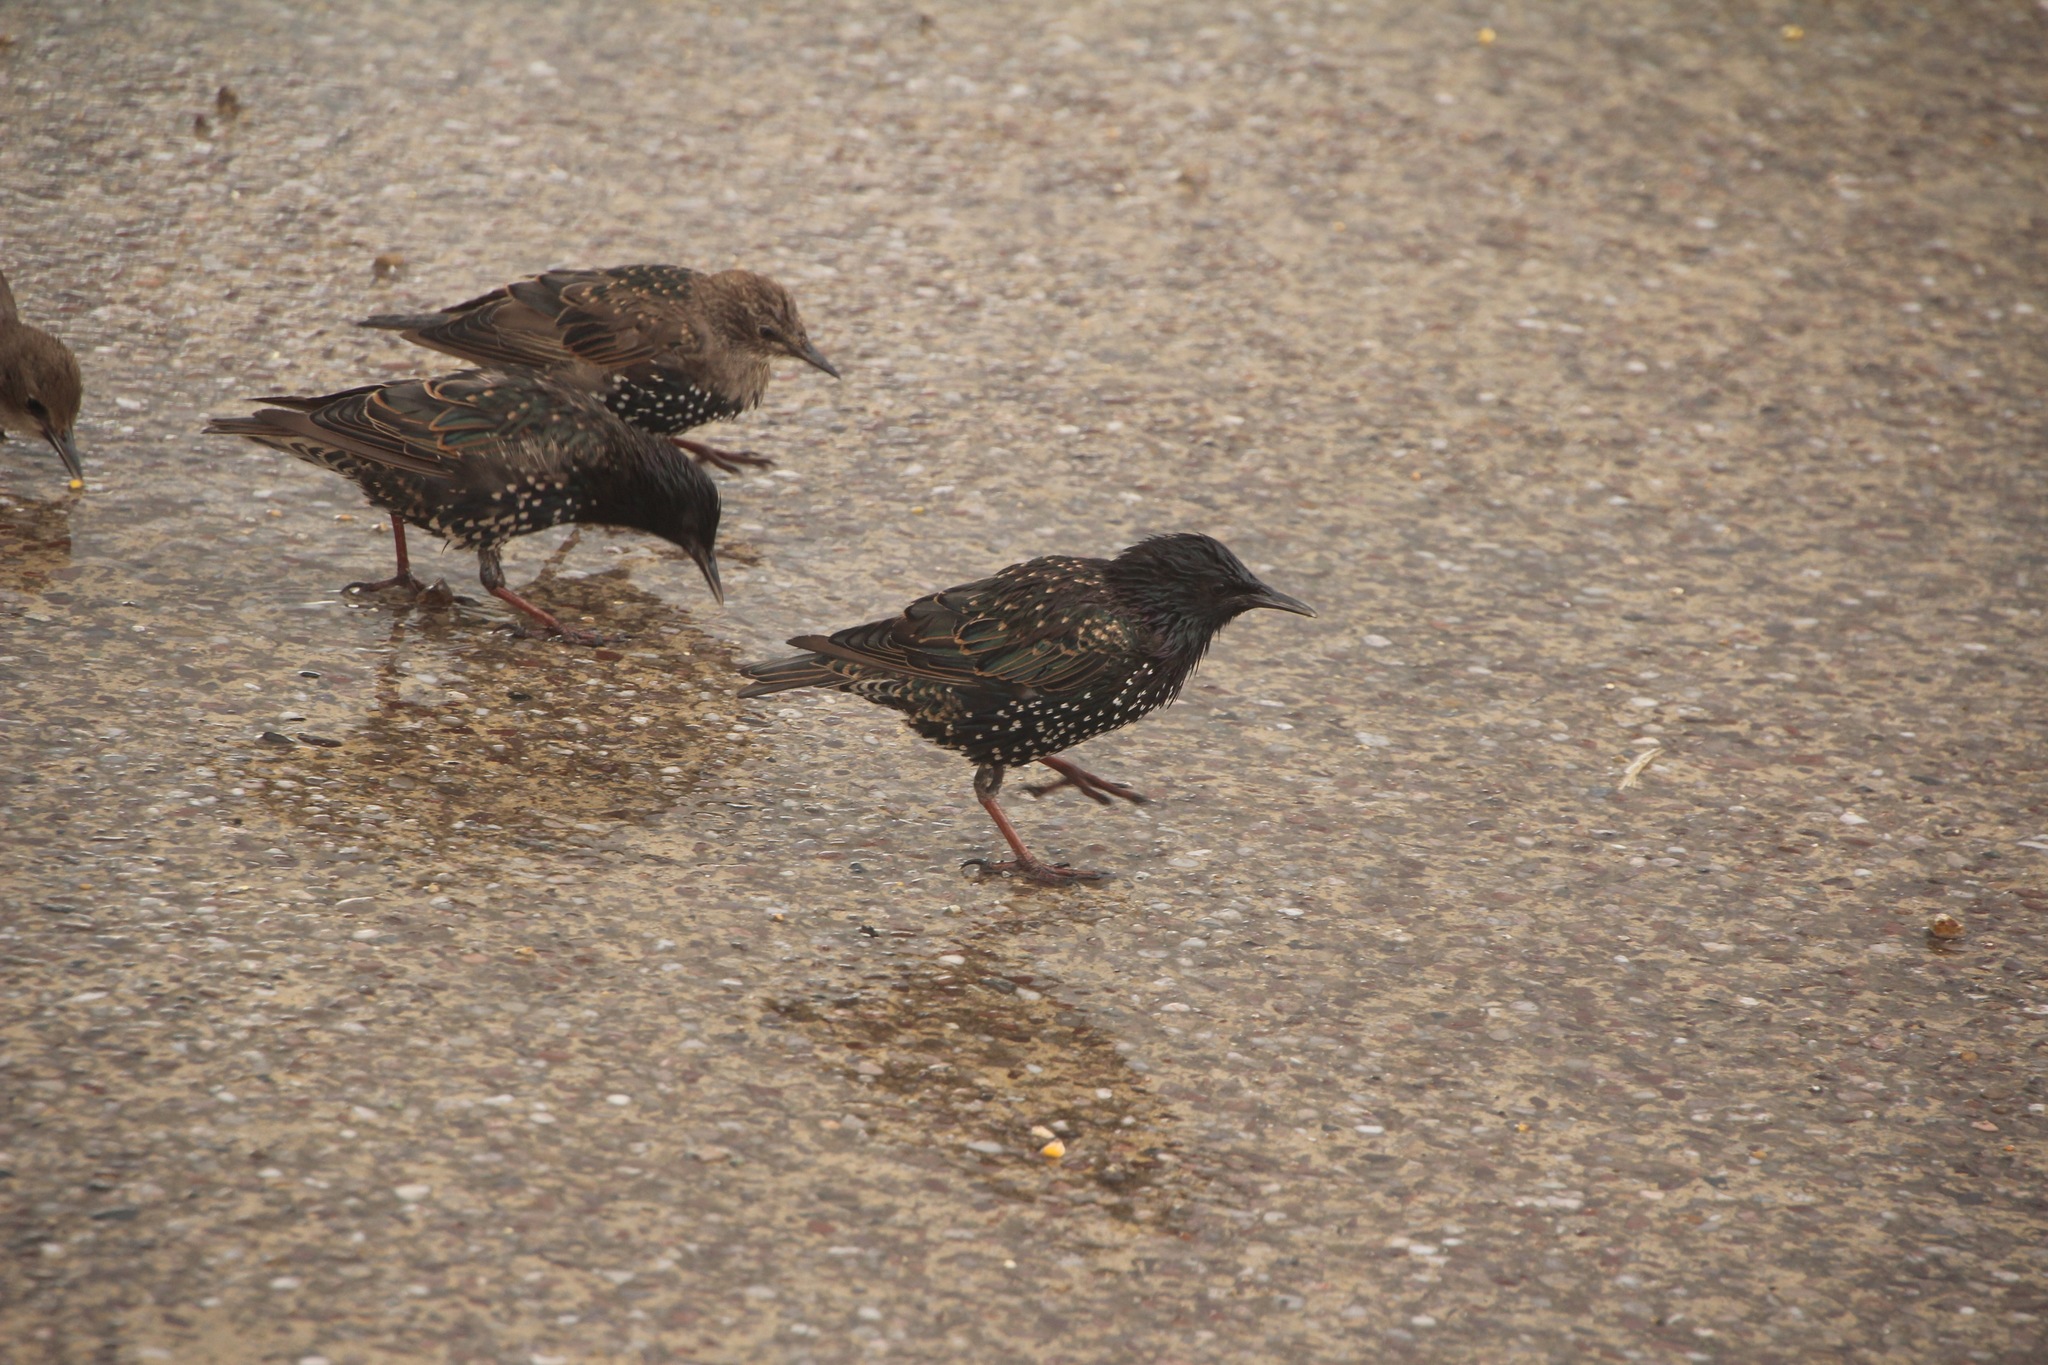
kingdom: Animalia
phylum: Chordata
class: Aves
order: Passeriformes
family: Sturnidae
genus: Sturnus
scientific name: Sturnus vulgaris
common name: Common starling
